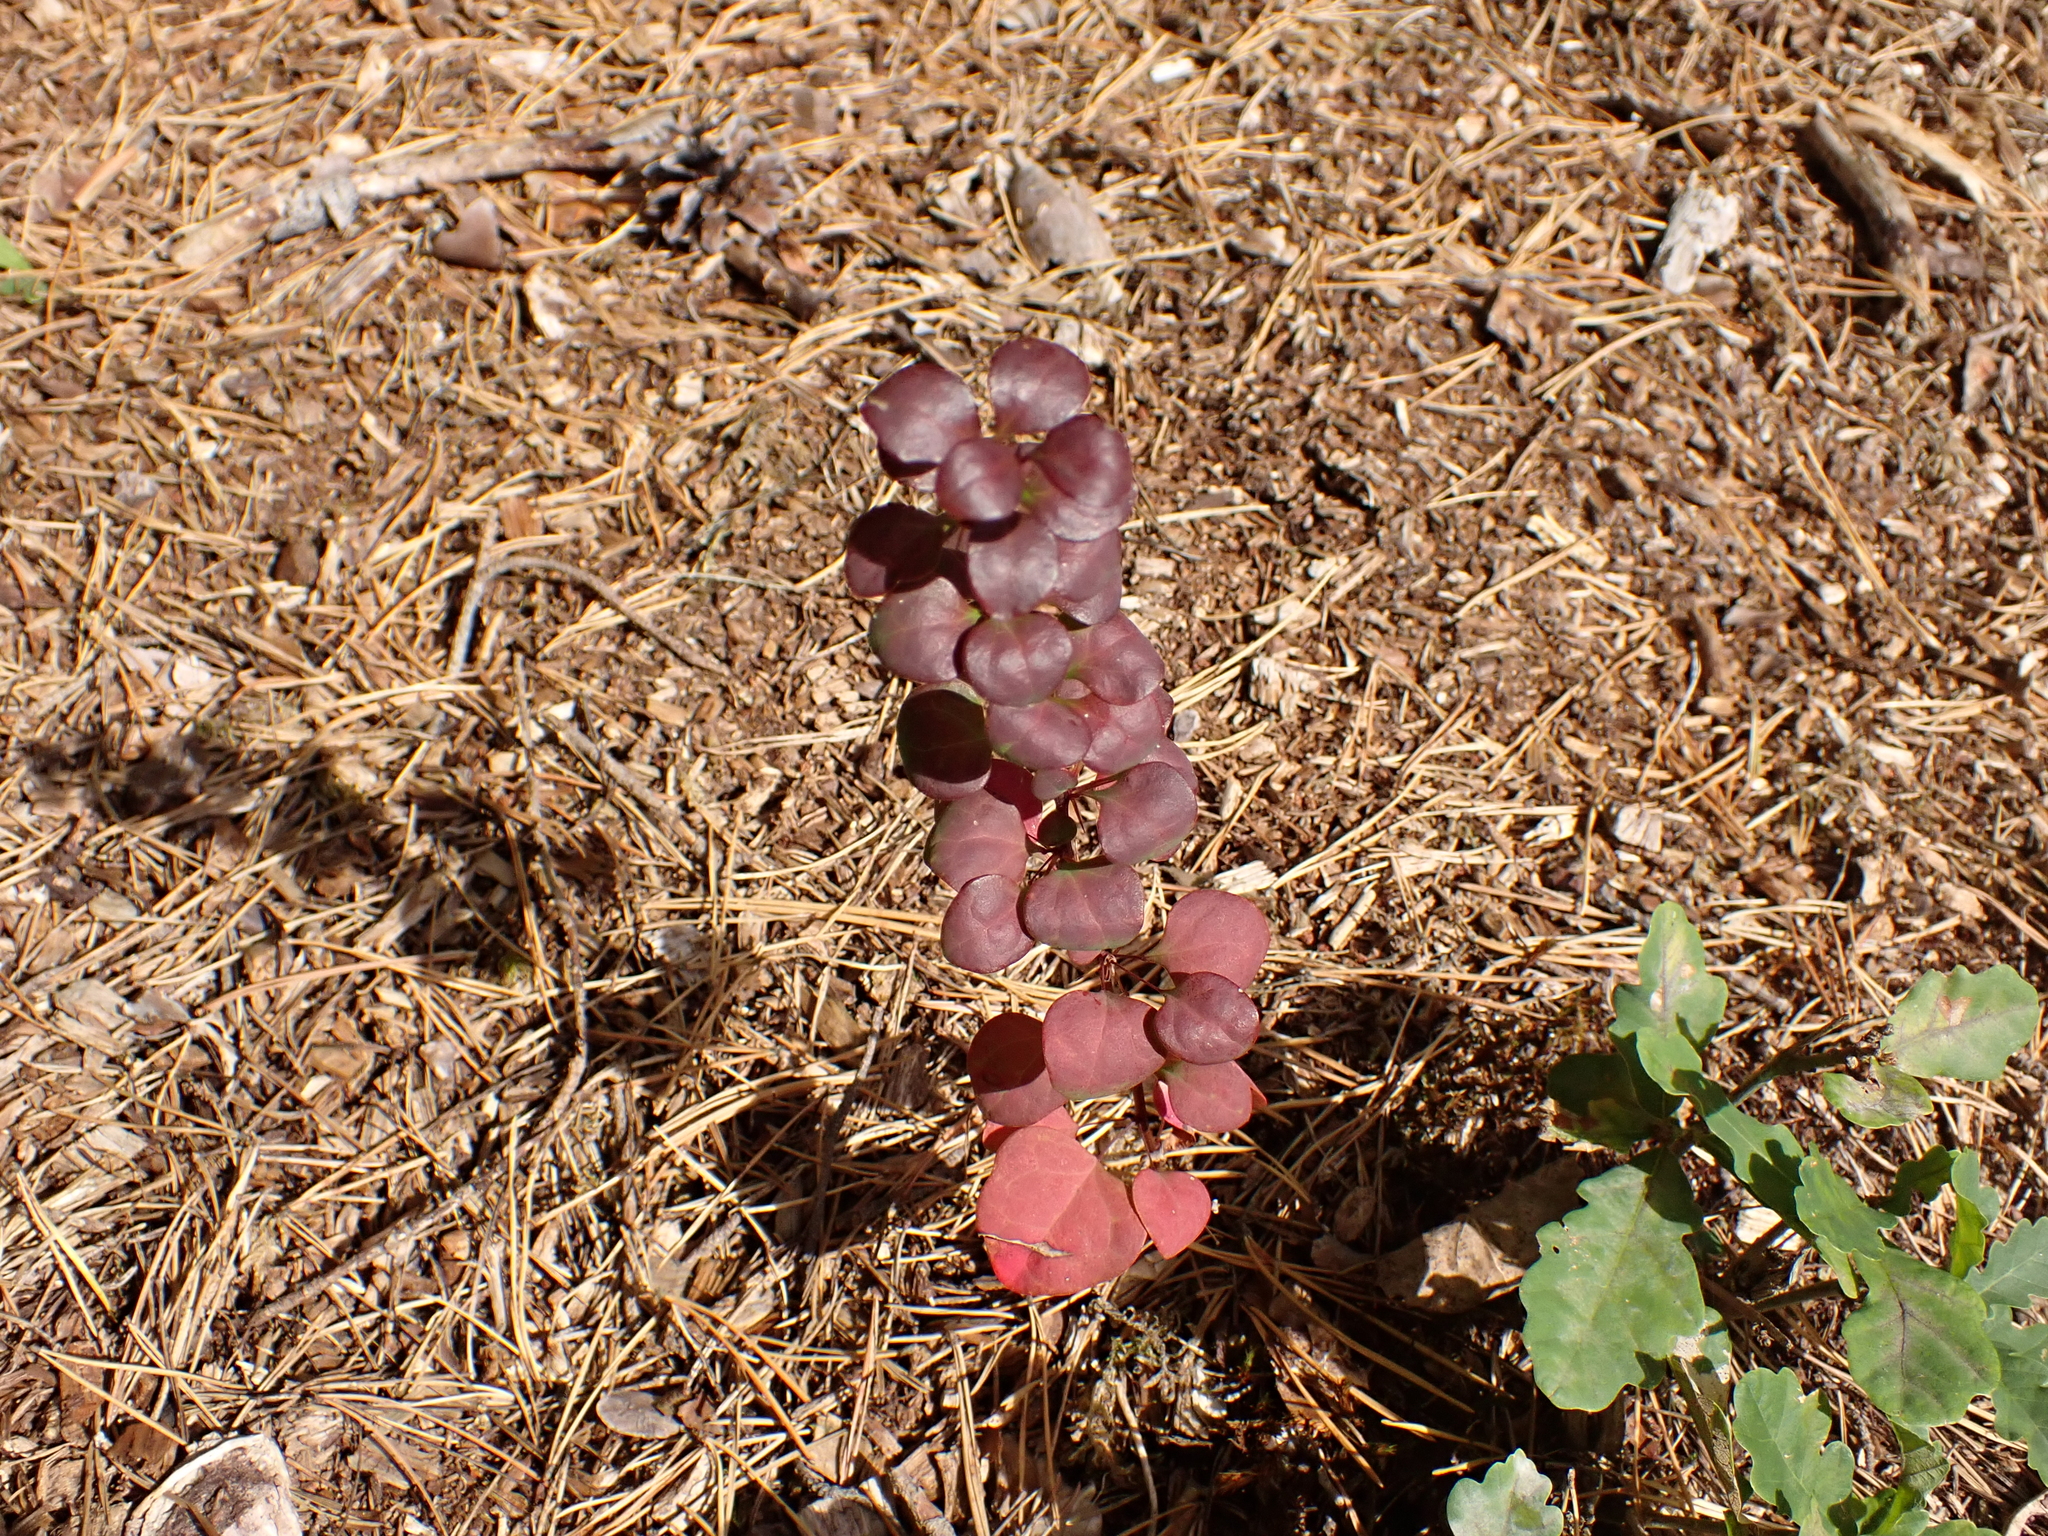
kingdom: Plantae
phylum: Tracheophyta
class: Magnoliopsida
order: Ranunculales
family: Berberidaceae
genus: Berberis
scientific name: Berberis thunbergii
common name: Japanese barberry
